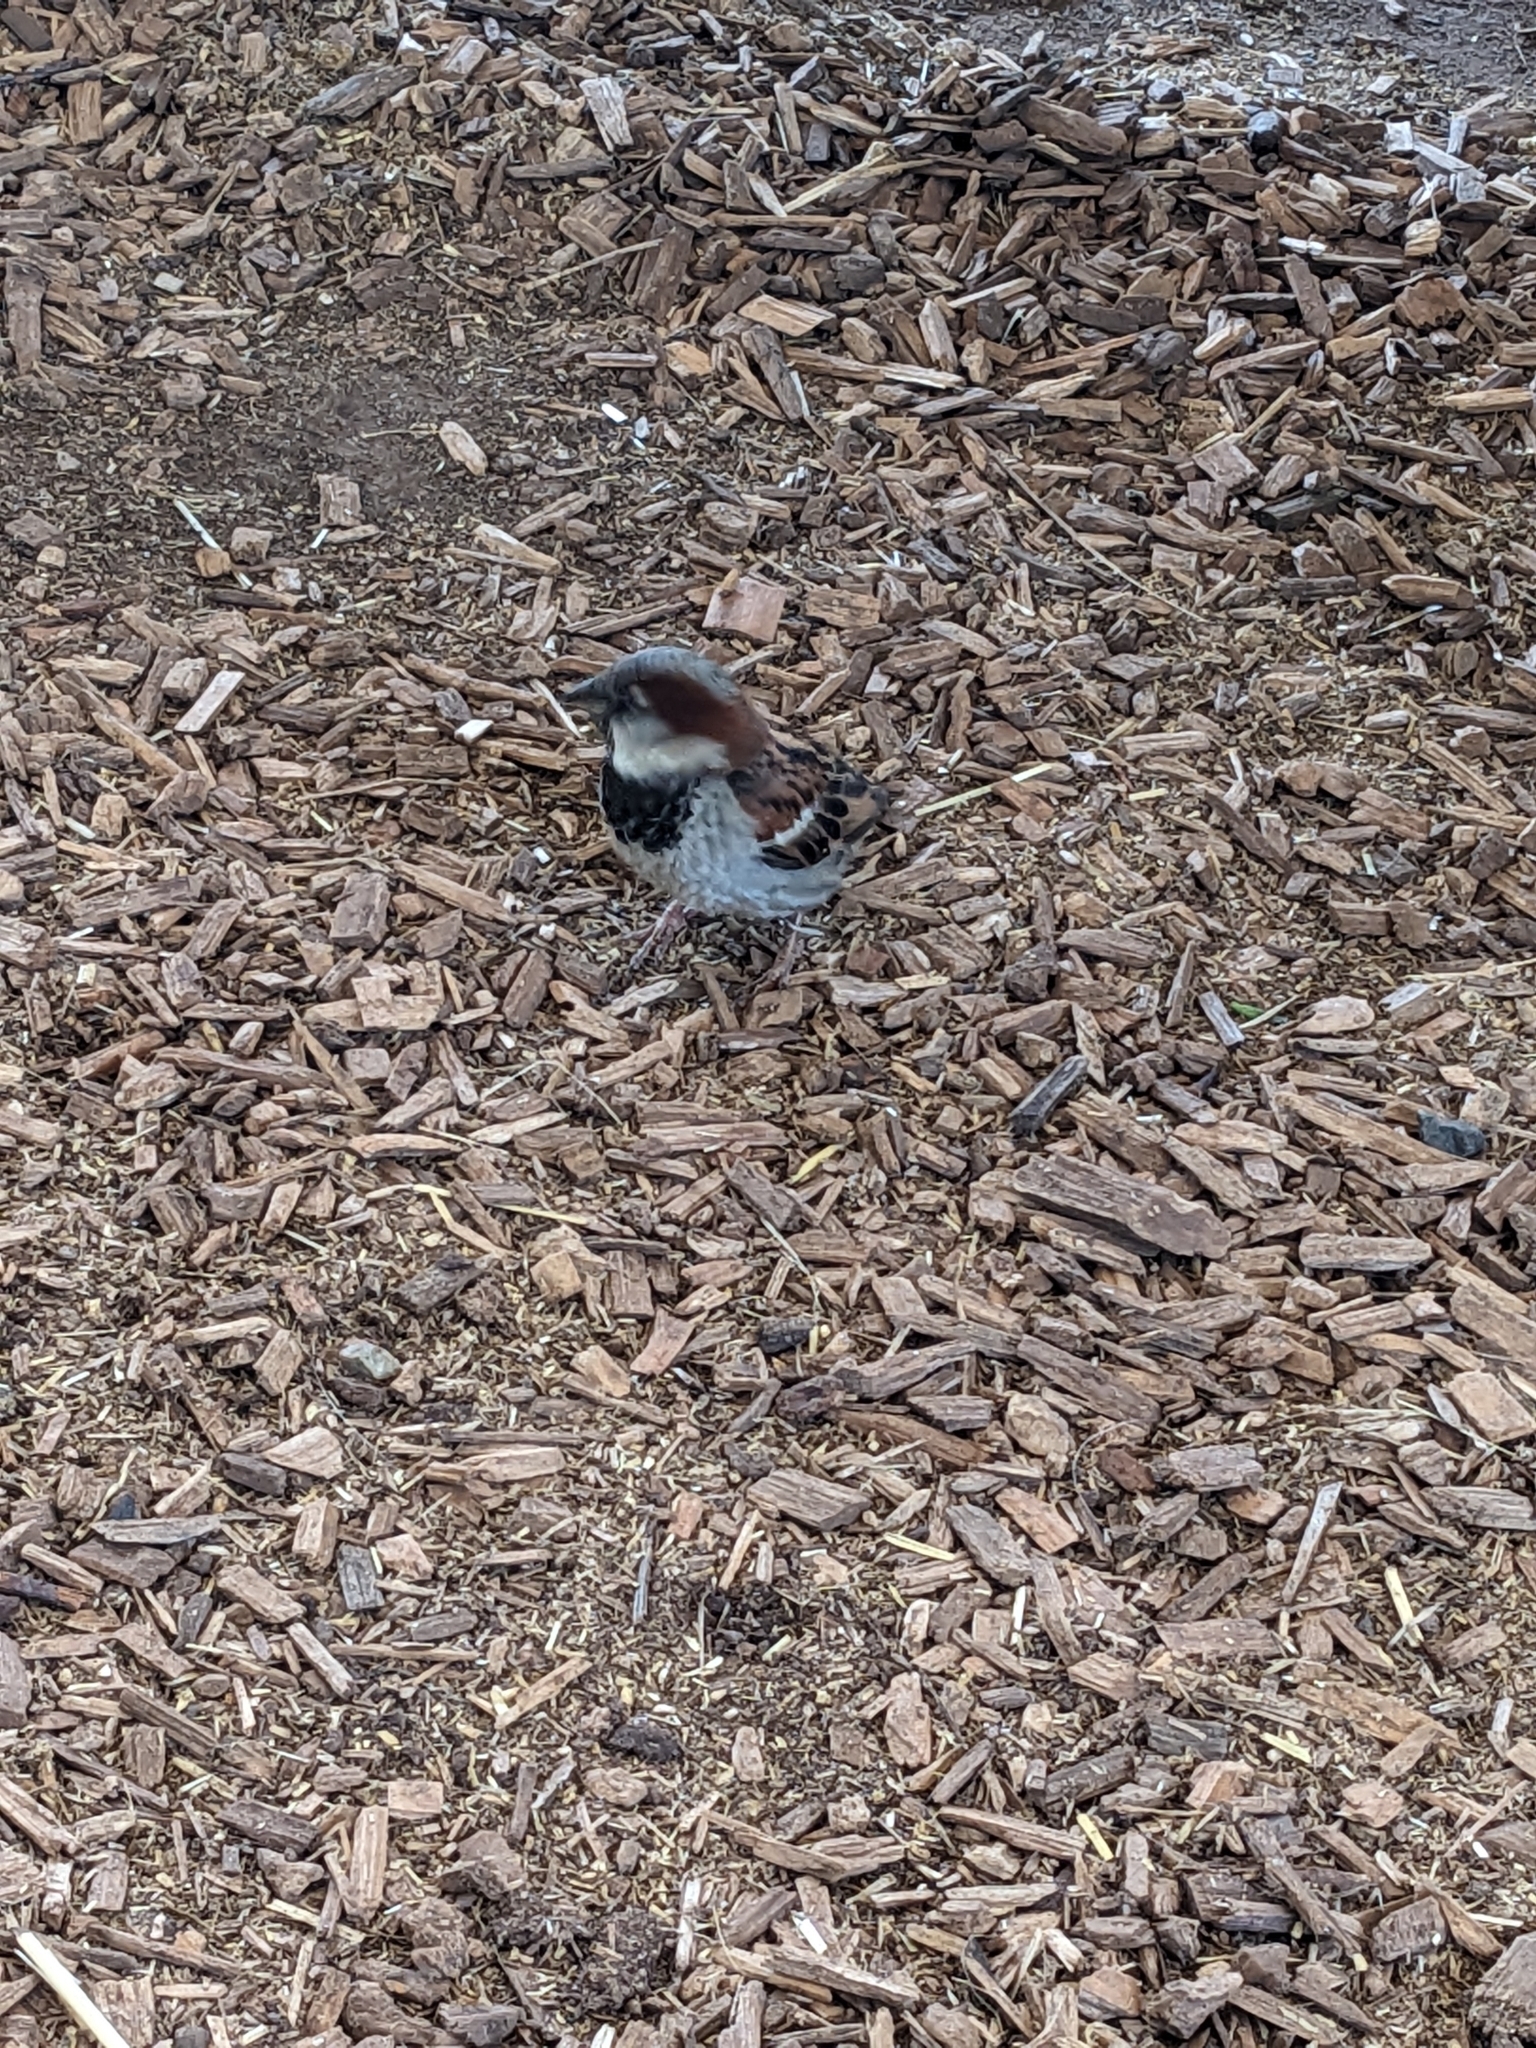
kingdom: Animalia
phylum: Chordata
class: Aves
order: Passeriformes
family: Passeridae
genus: Passer
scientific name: Passer domesticus
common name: House sparrow
